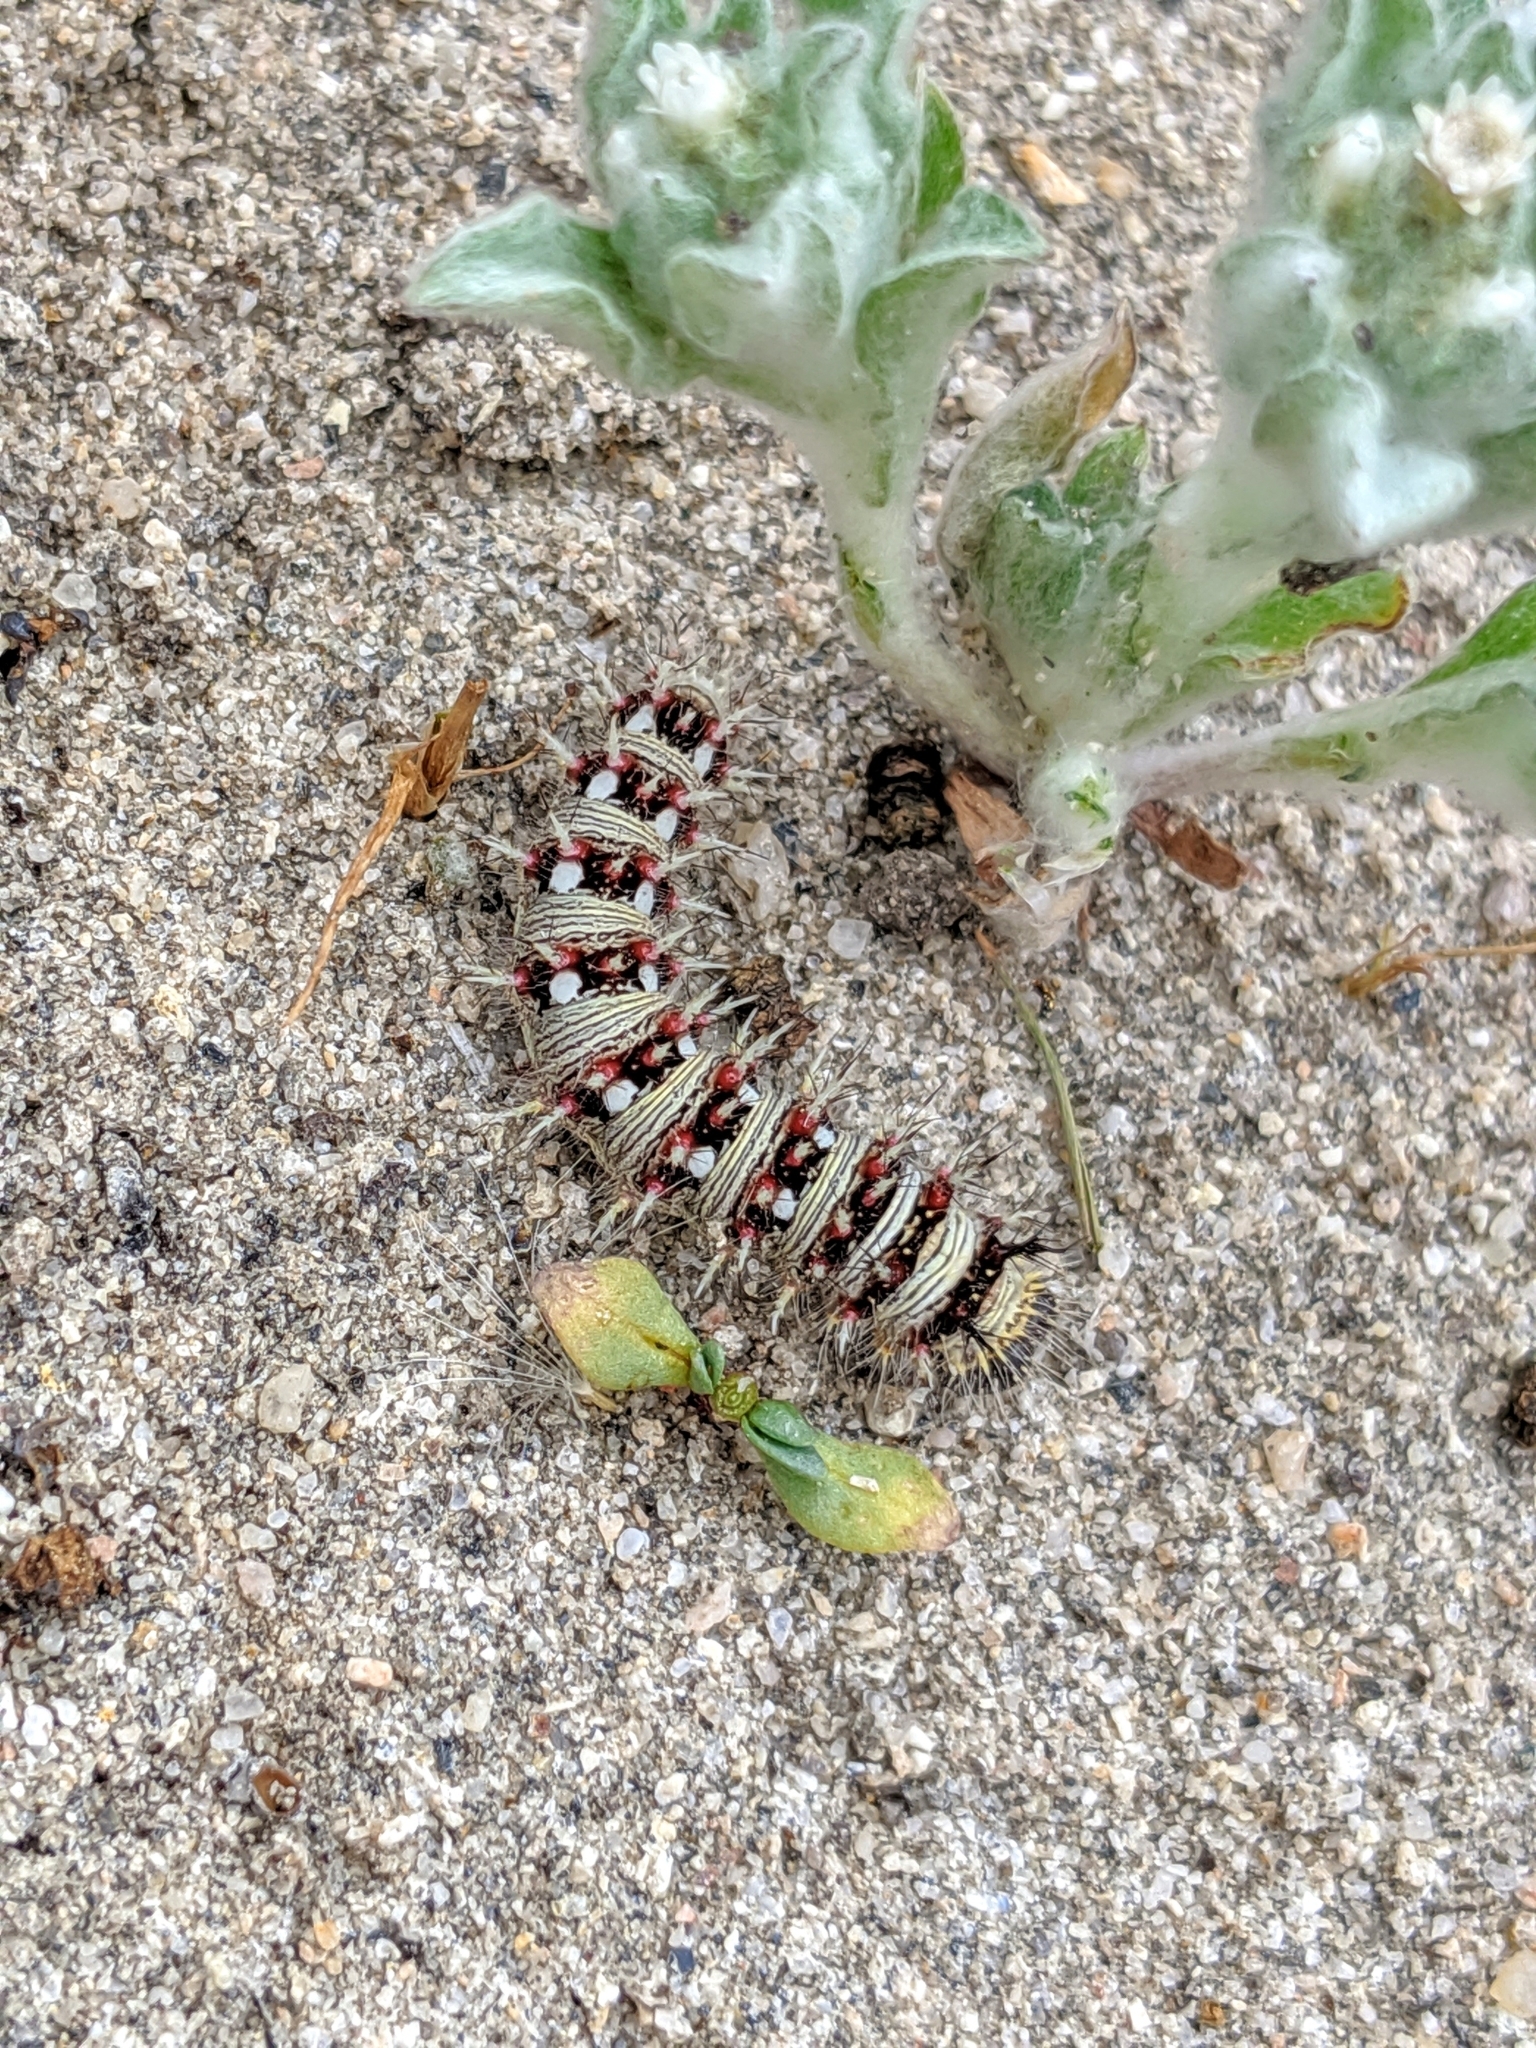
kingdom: Animalia
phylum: Arthropoda
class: Insecta
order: Lepidoptera
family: Nymphalidae
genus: Vanessa
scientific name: Vanessa virginiensis
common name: American lady
